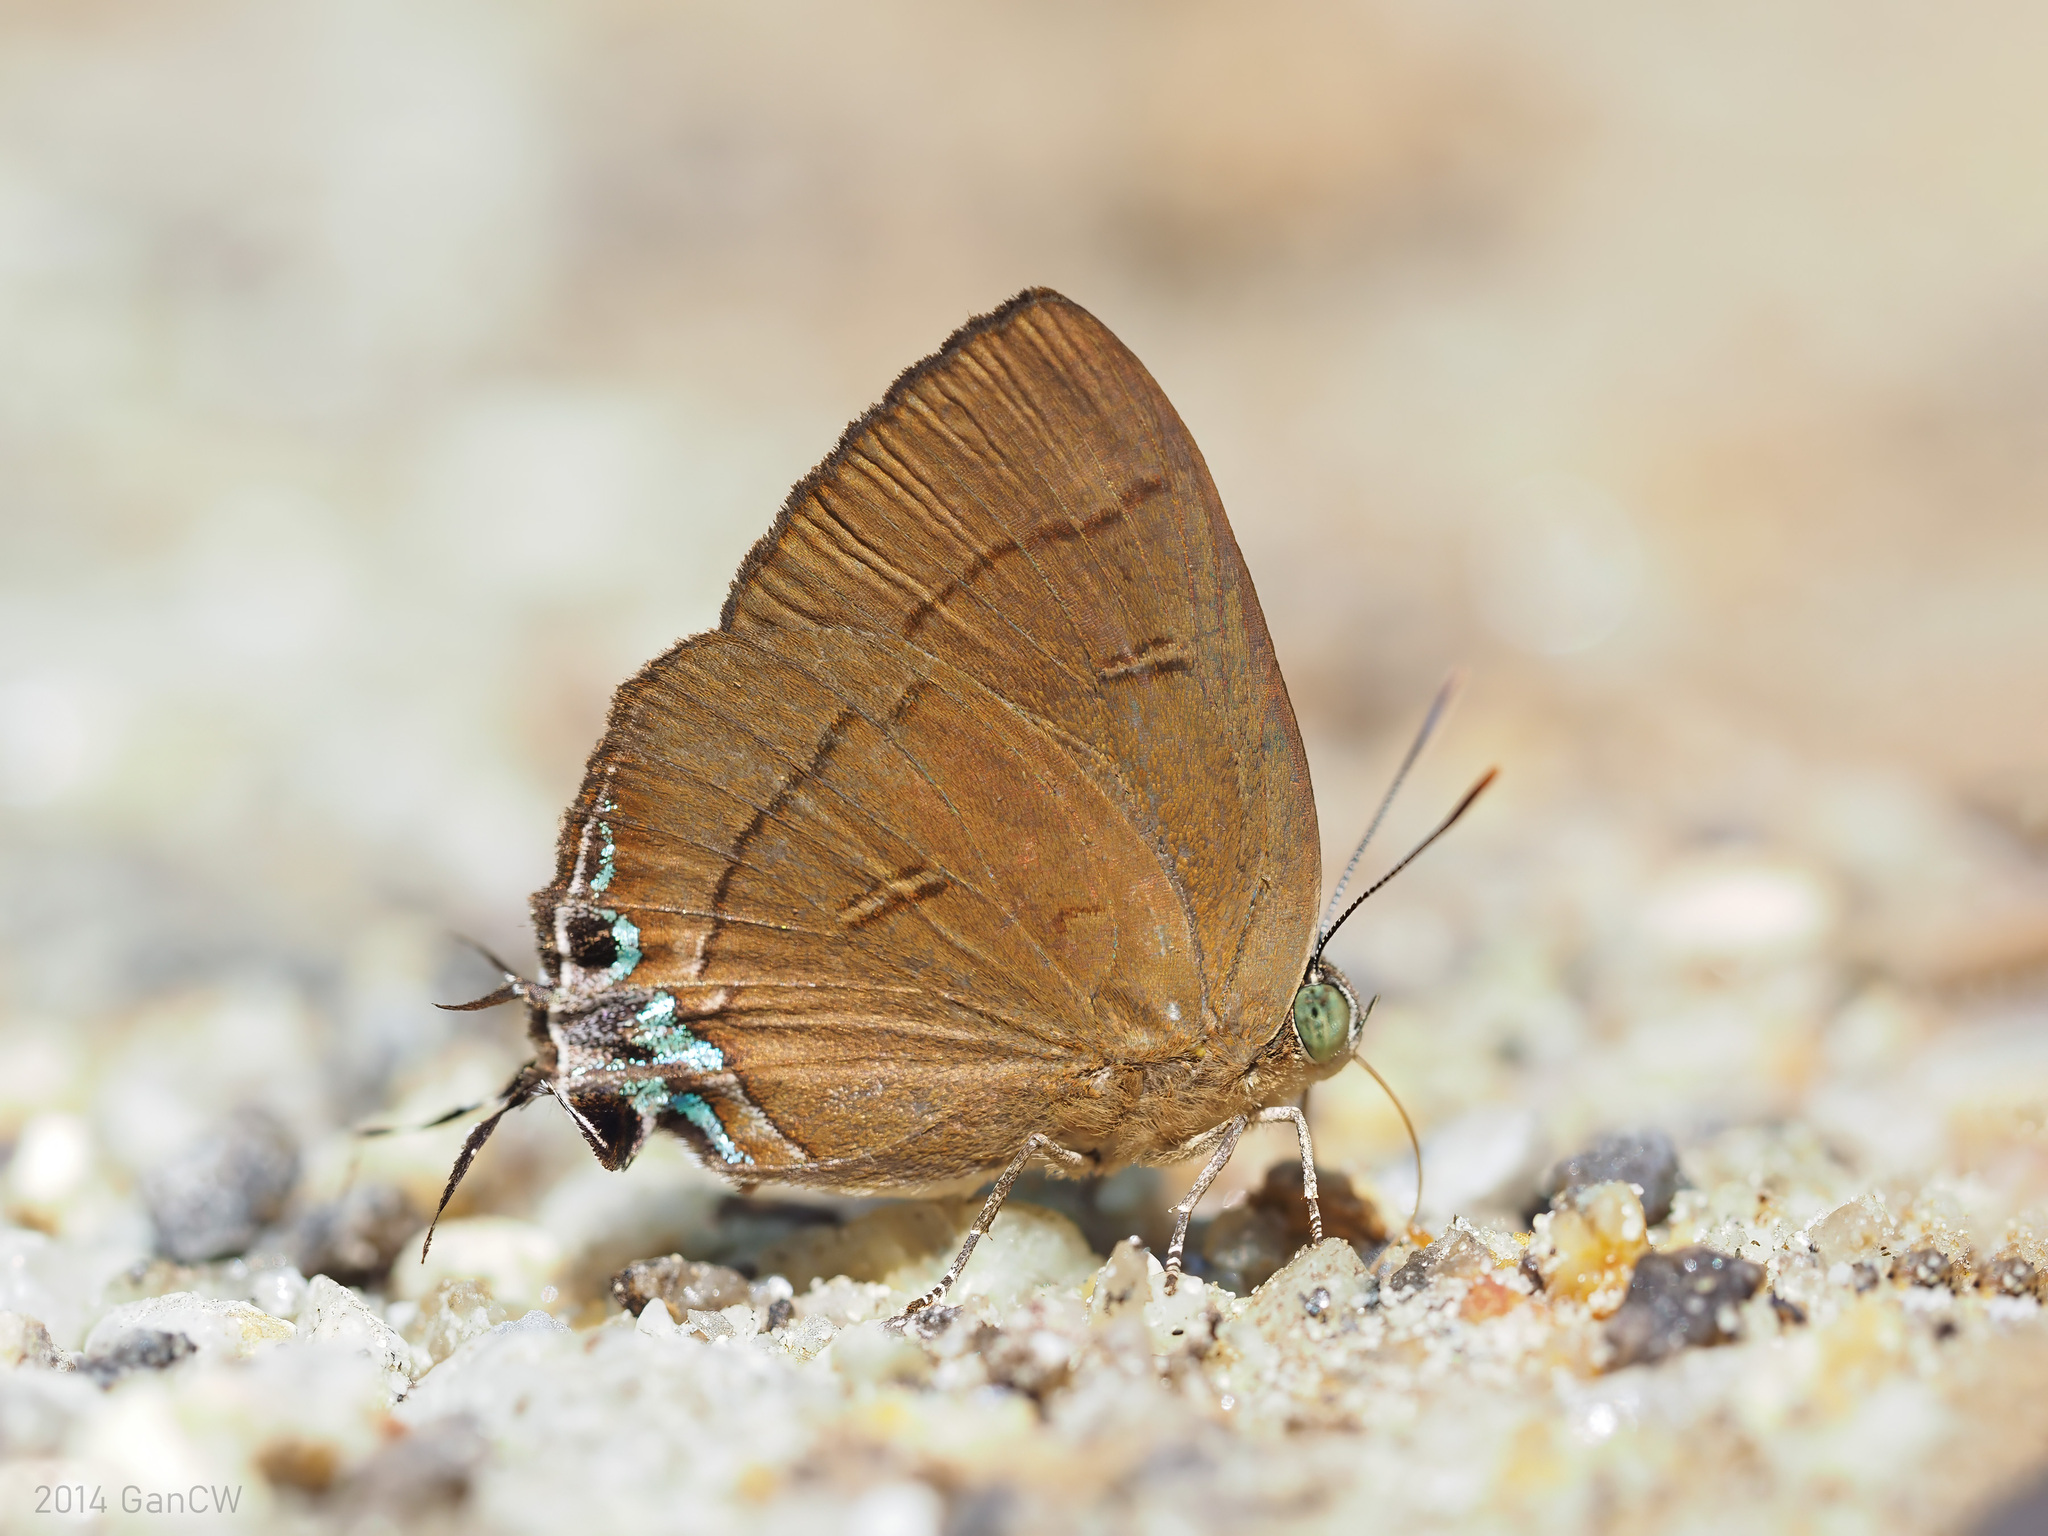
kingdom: Animalia
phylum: Arthropoda
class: Insecta
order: Lepidoptera
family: Lycaenidae
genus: Remelana
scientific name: Remelana jangala
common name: Chocolate royal
